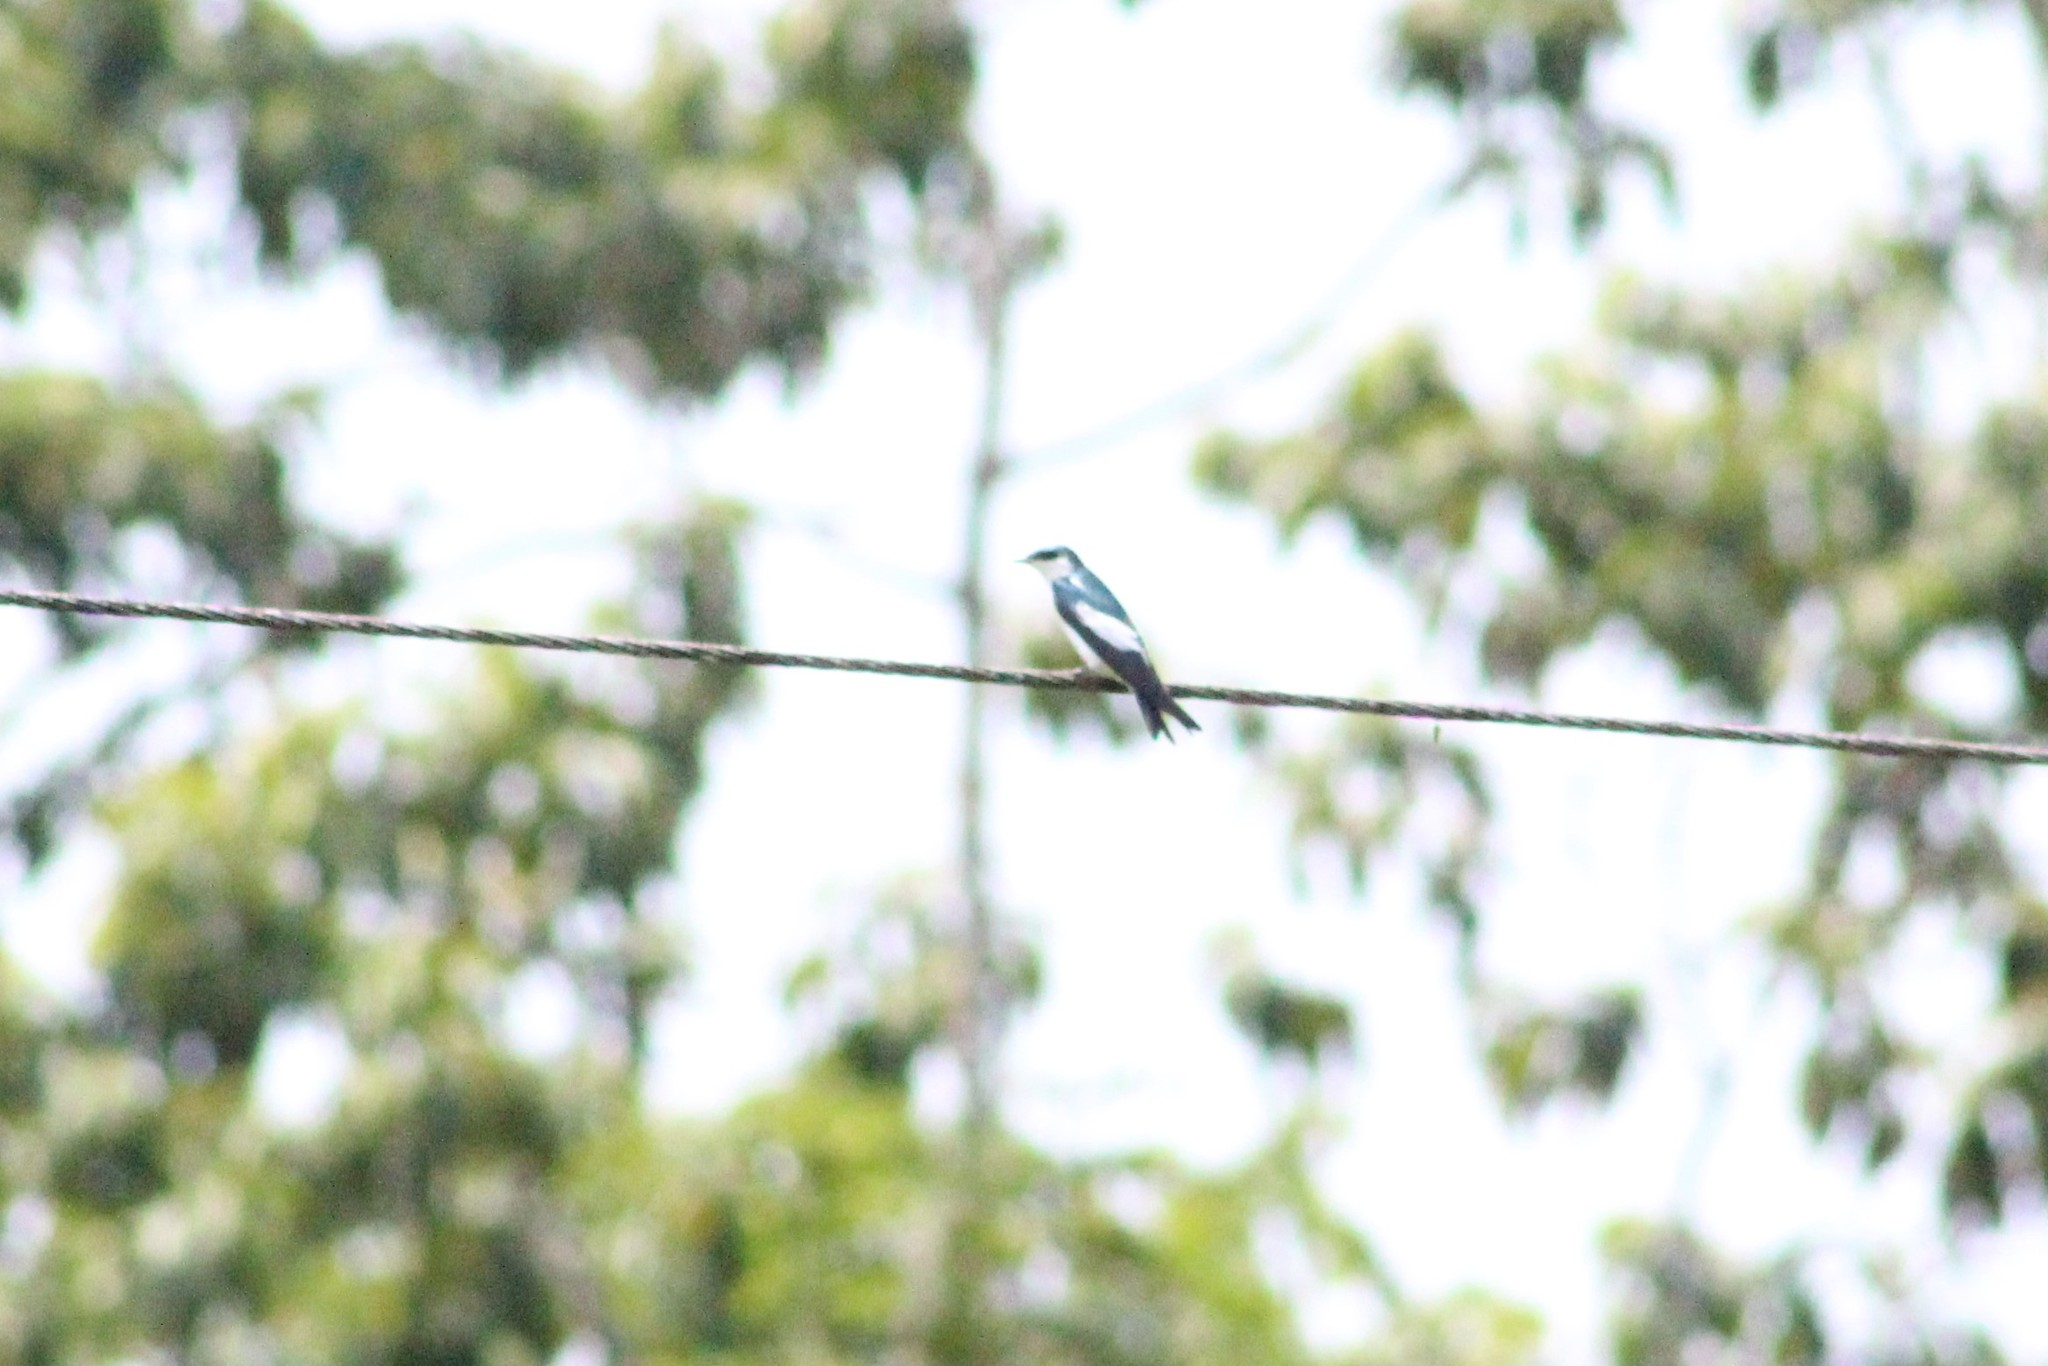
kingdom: Animalia
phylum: Chordata
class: Aves
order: Passeriformes
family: Hirundinidae
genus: Tachycineta
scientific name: Tachycineta albiventer
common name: White-winged swallow
